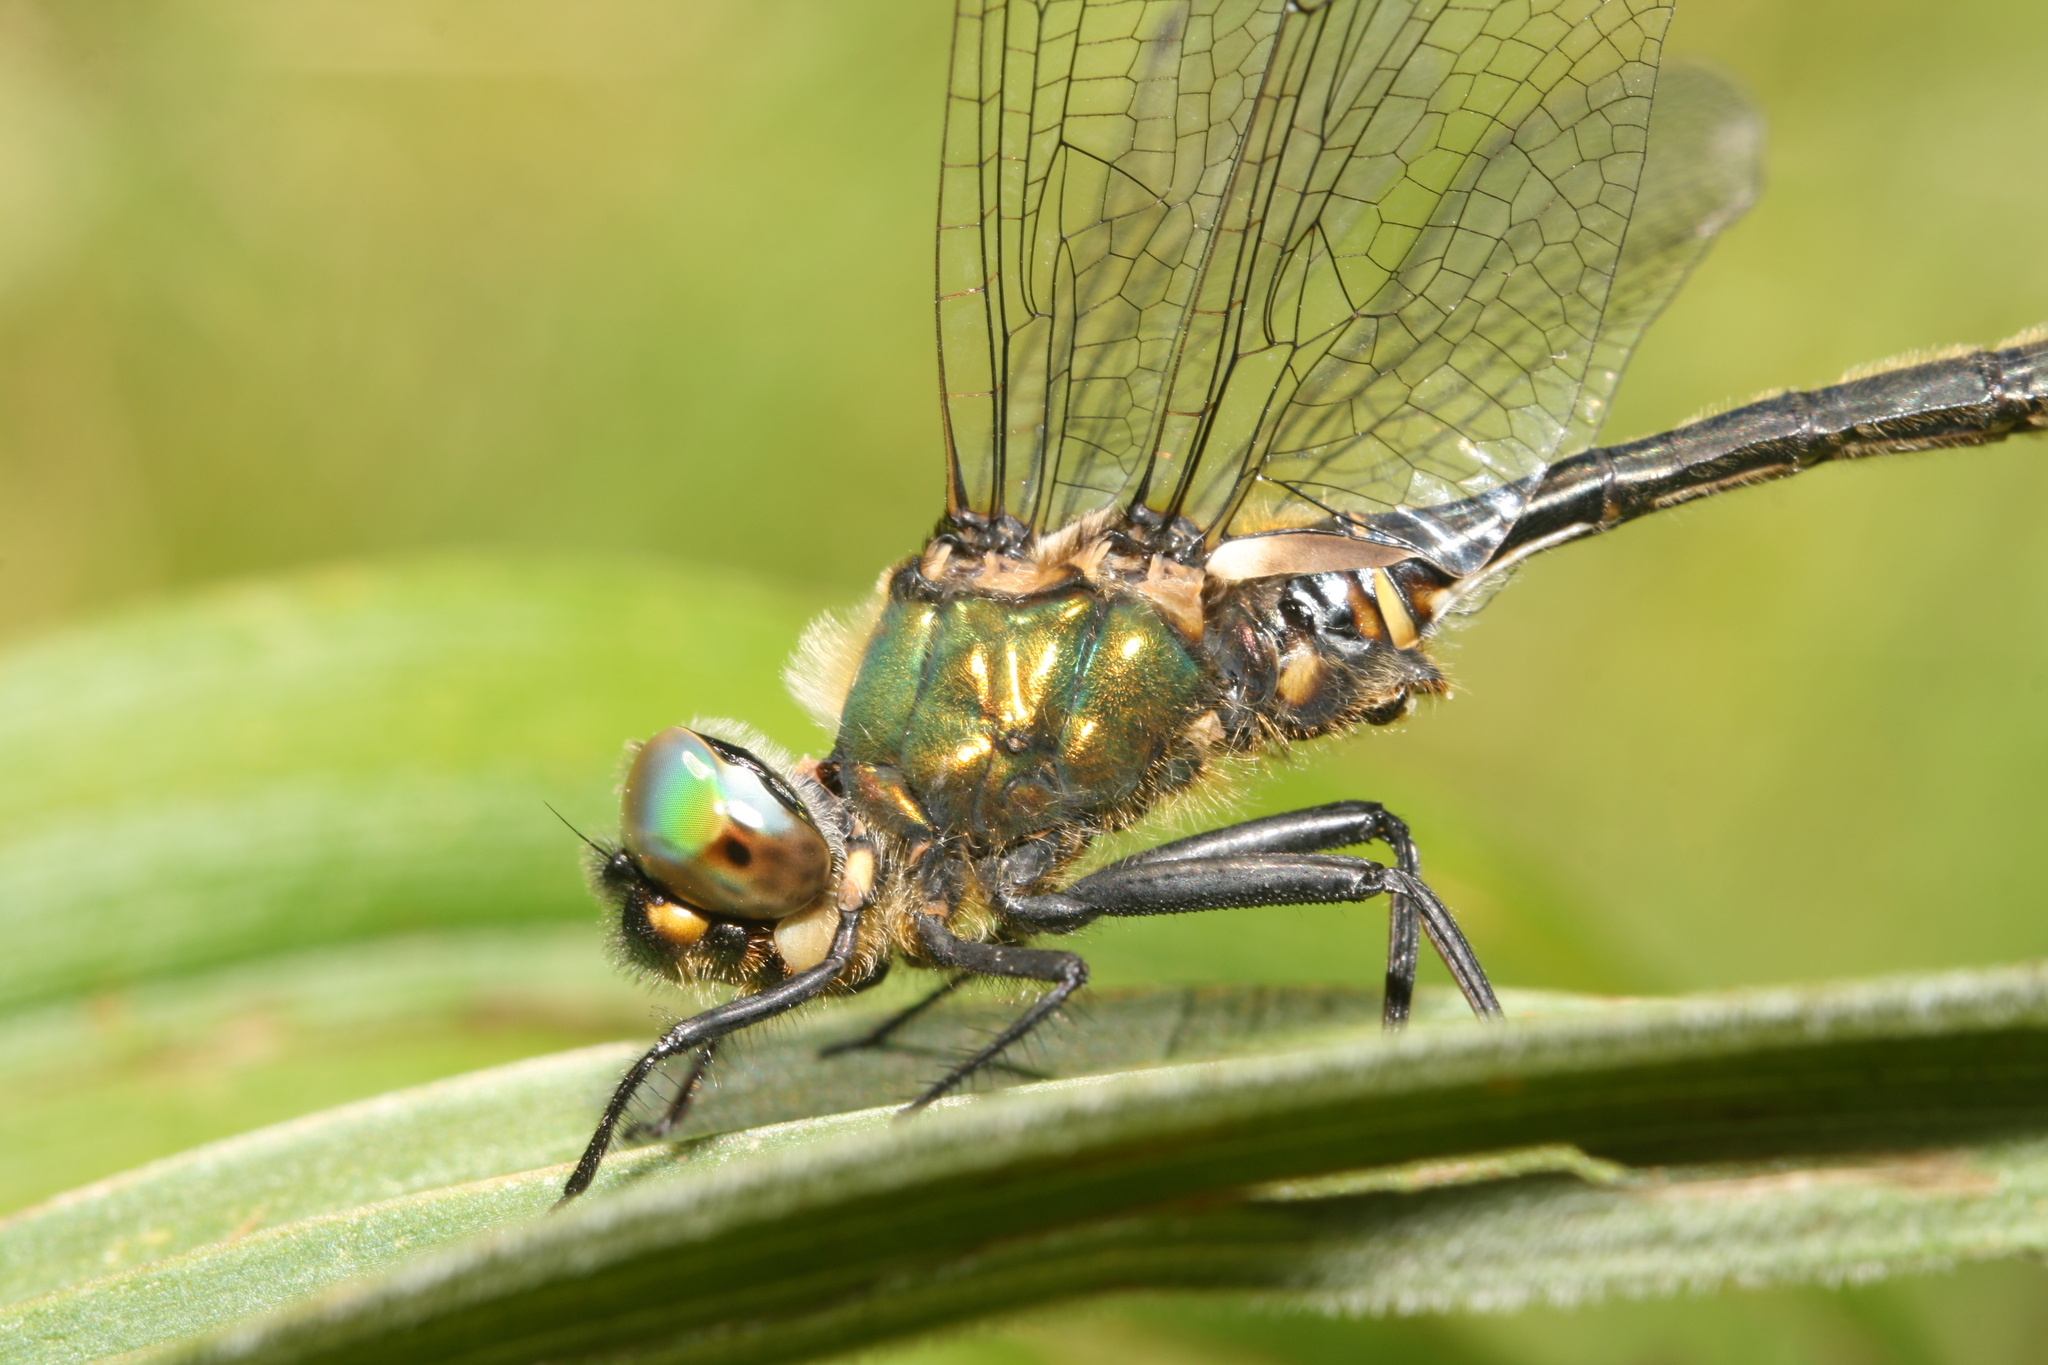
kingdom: Animalia
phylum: Arthropoda
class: Insecta
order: Odonata
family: Corduliidae
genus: Somatochlora
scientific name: Somatochlora arctica
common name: Northern emerald
